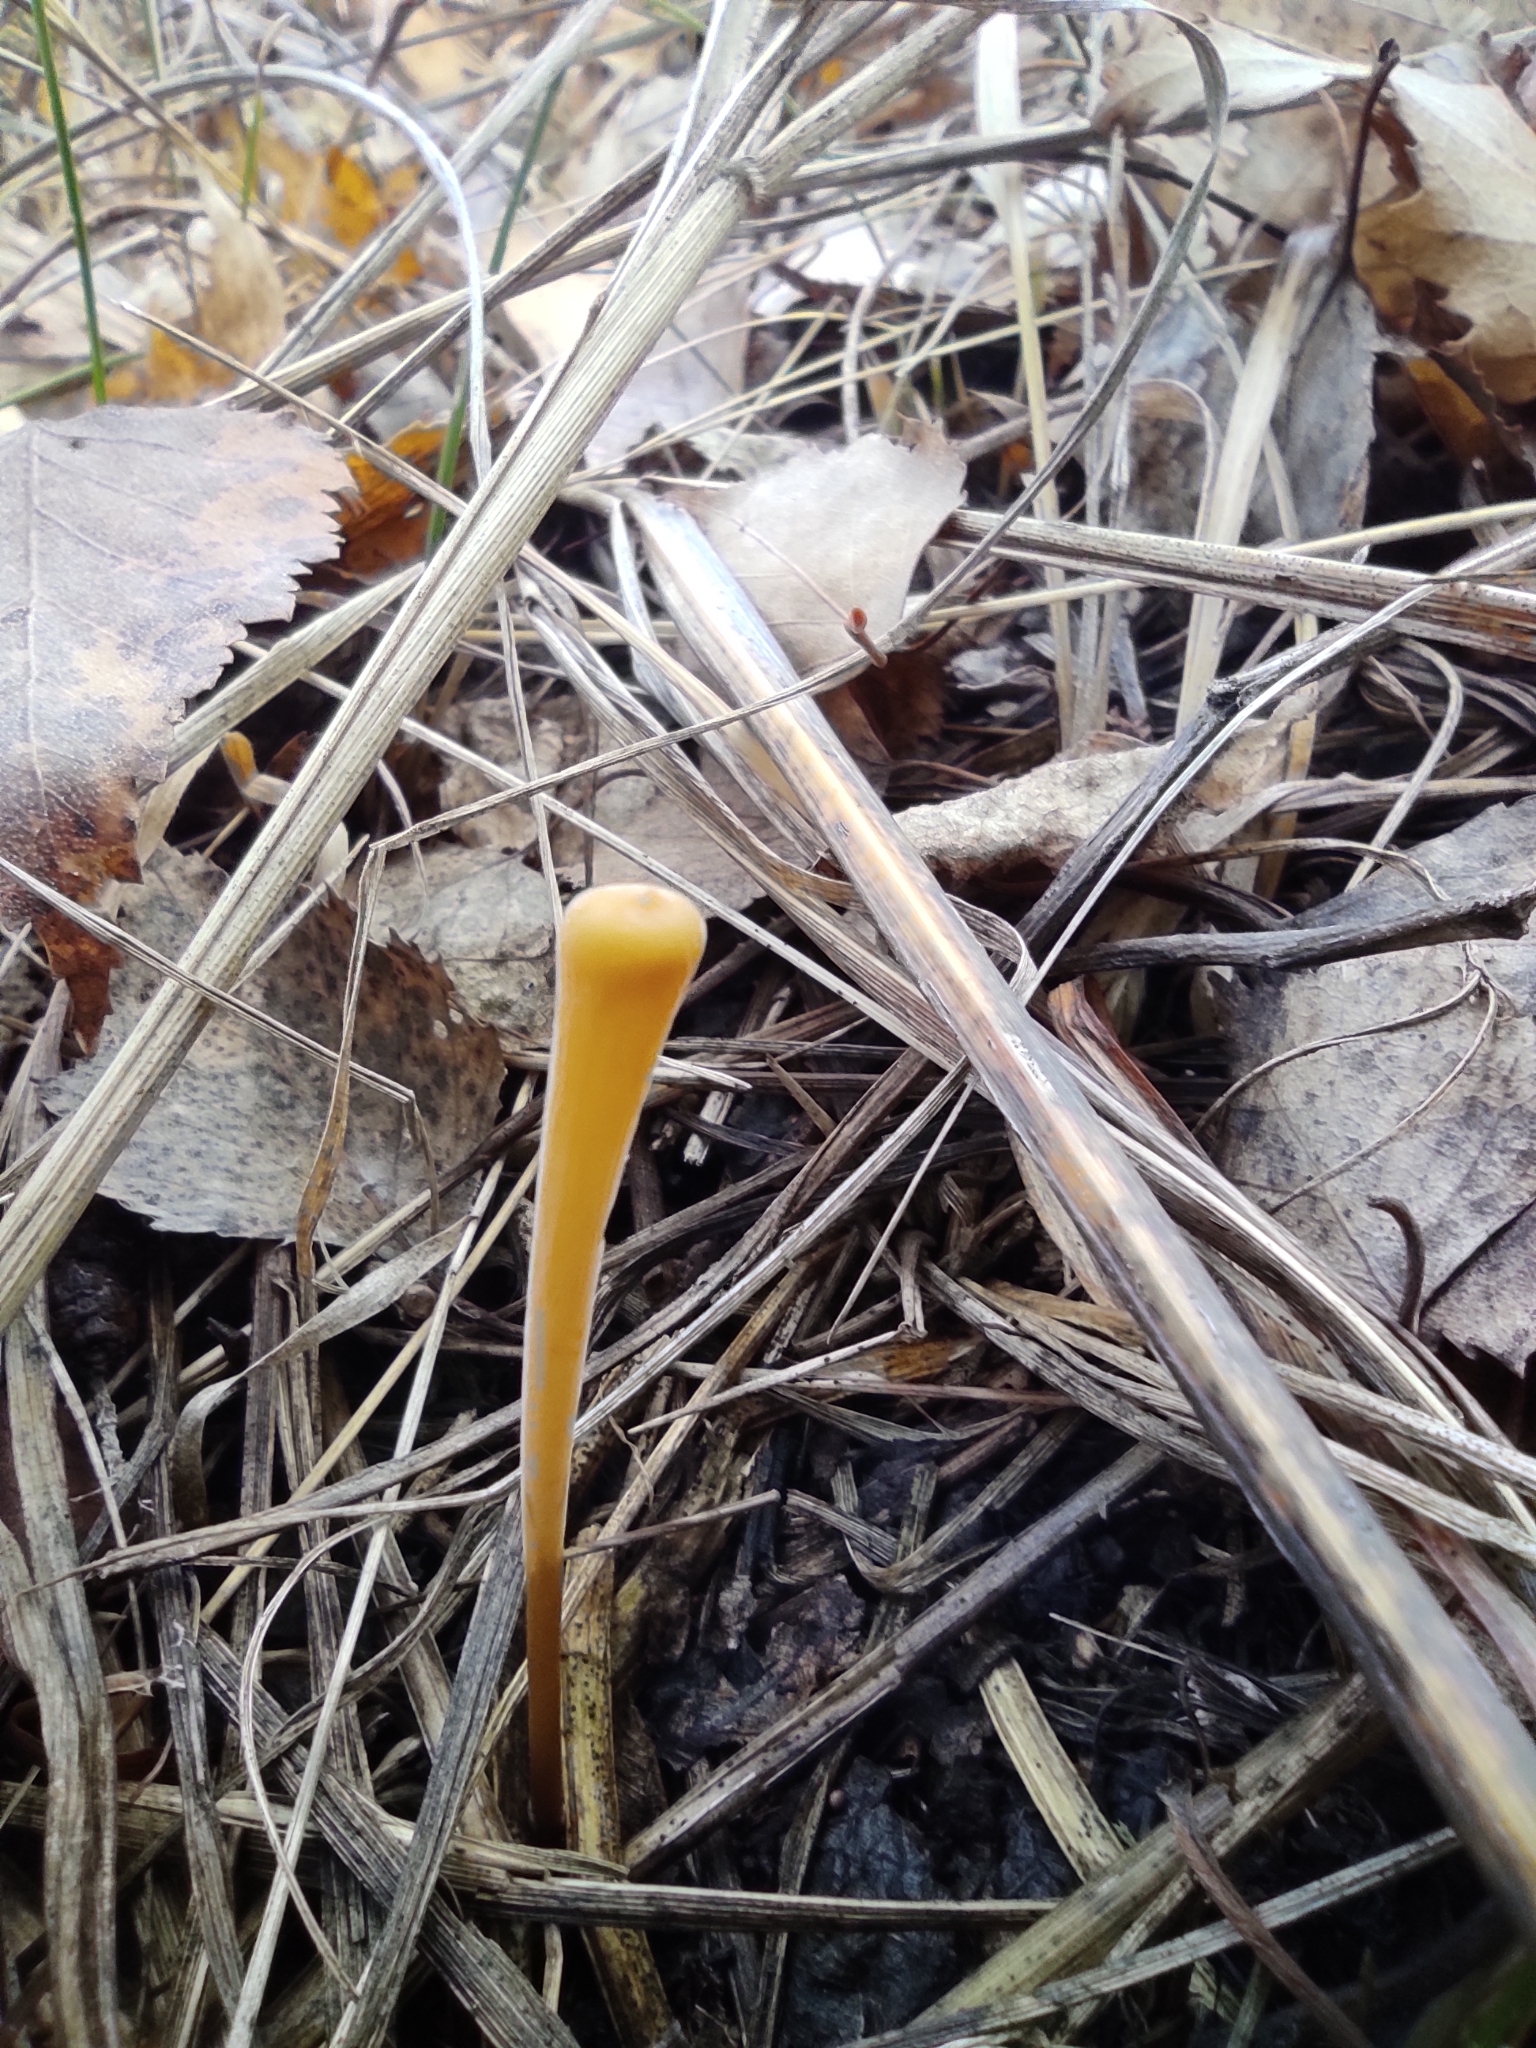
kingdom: Fungi
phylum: Basidiomycota
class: Agaricomycetes
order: Agaricales
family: Typhulaceae
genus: Typhula
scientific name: Typhula fistulosa
